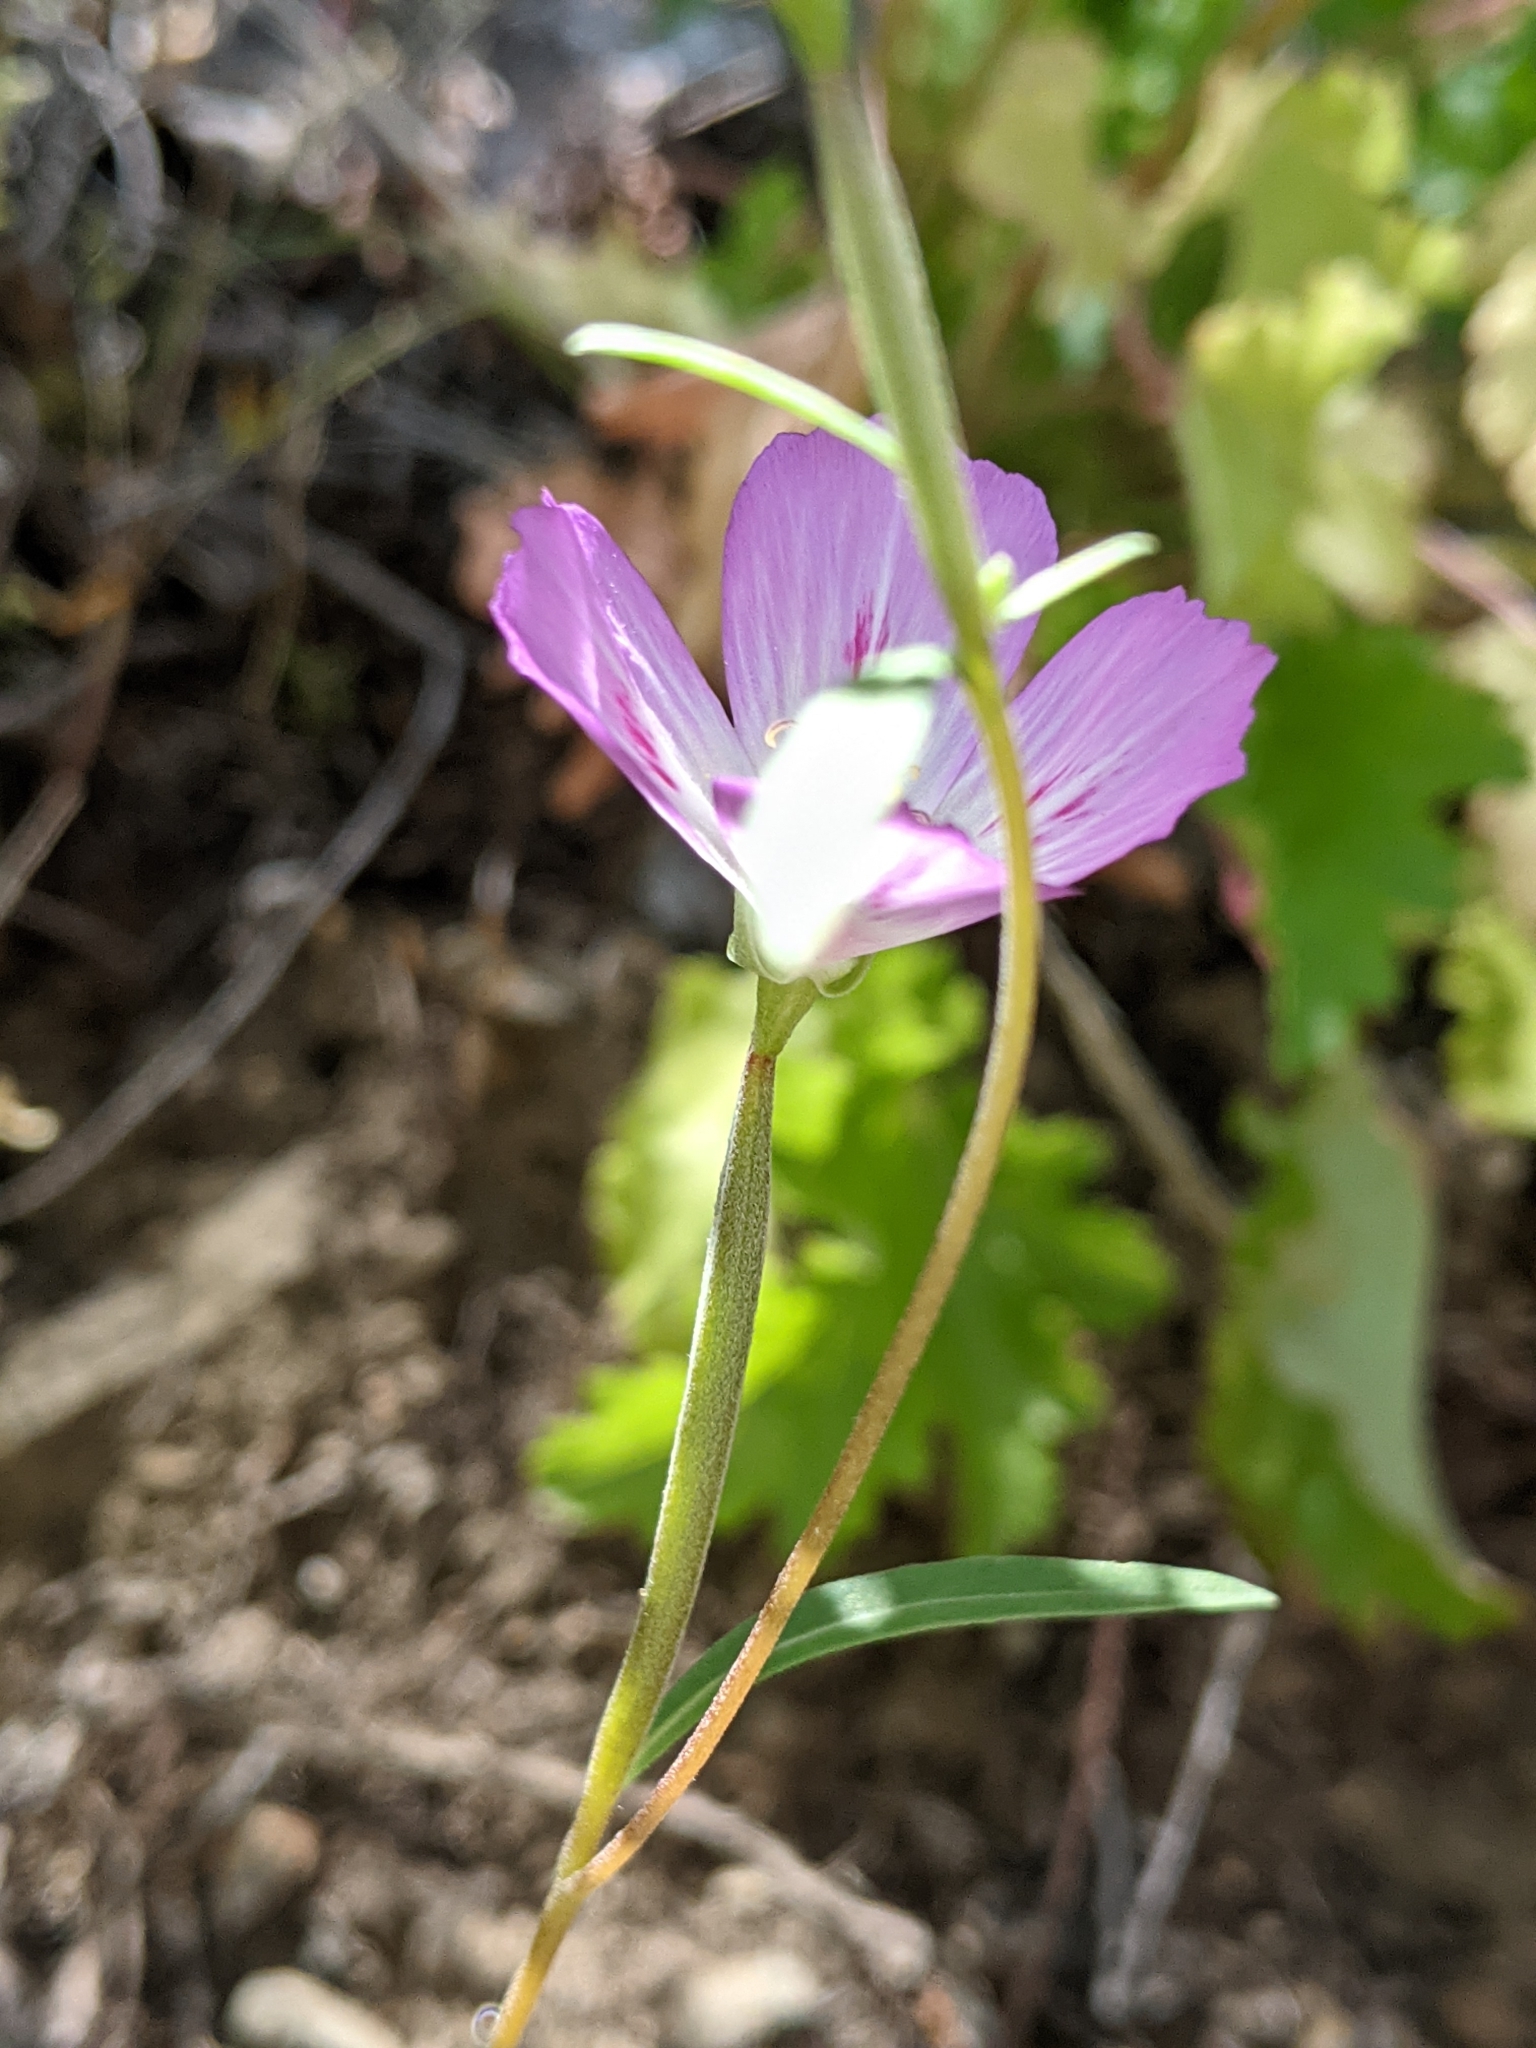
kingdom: Plantae
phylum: Tracheophyta
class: Magnoliopsida
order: Myrtales
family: Onagraceae
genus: Clarkia
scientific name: Clarkia amoena
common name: Godetia
